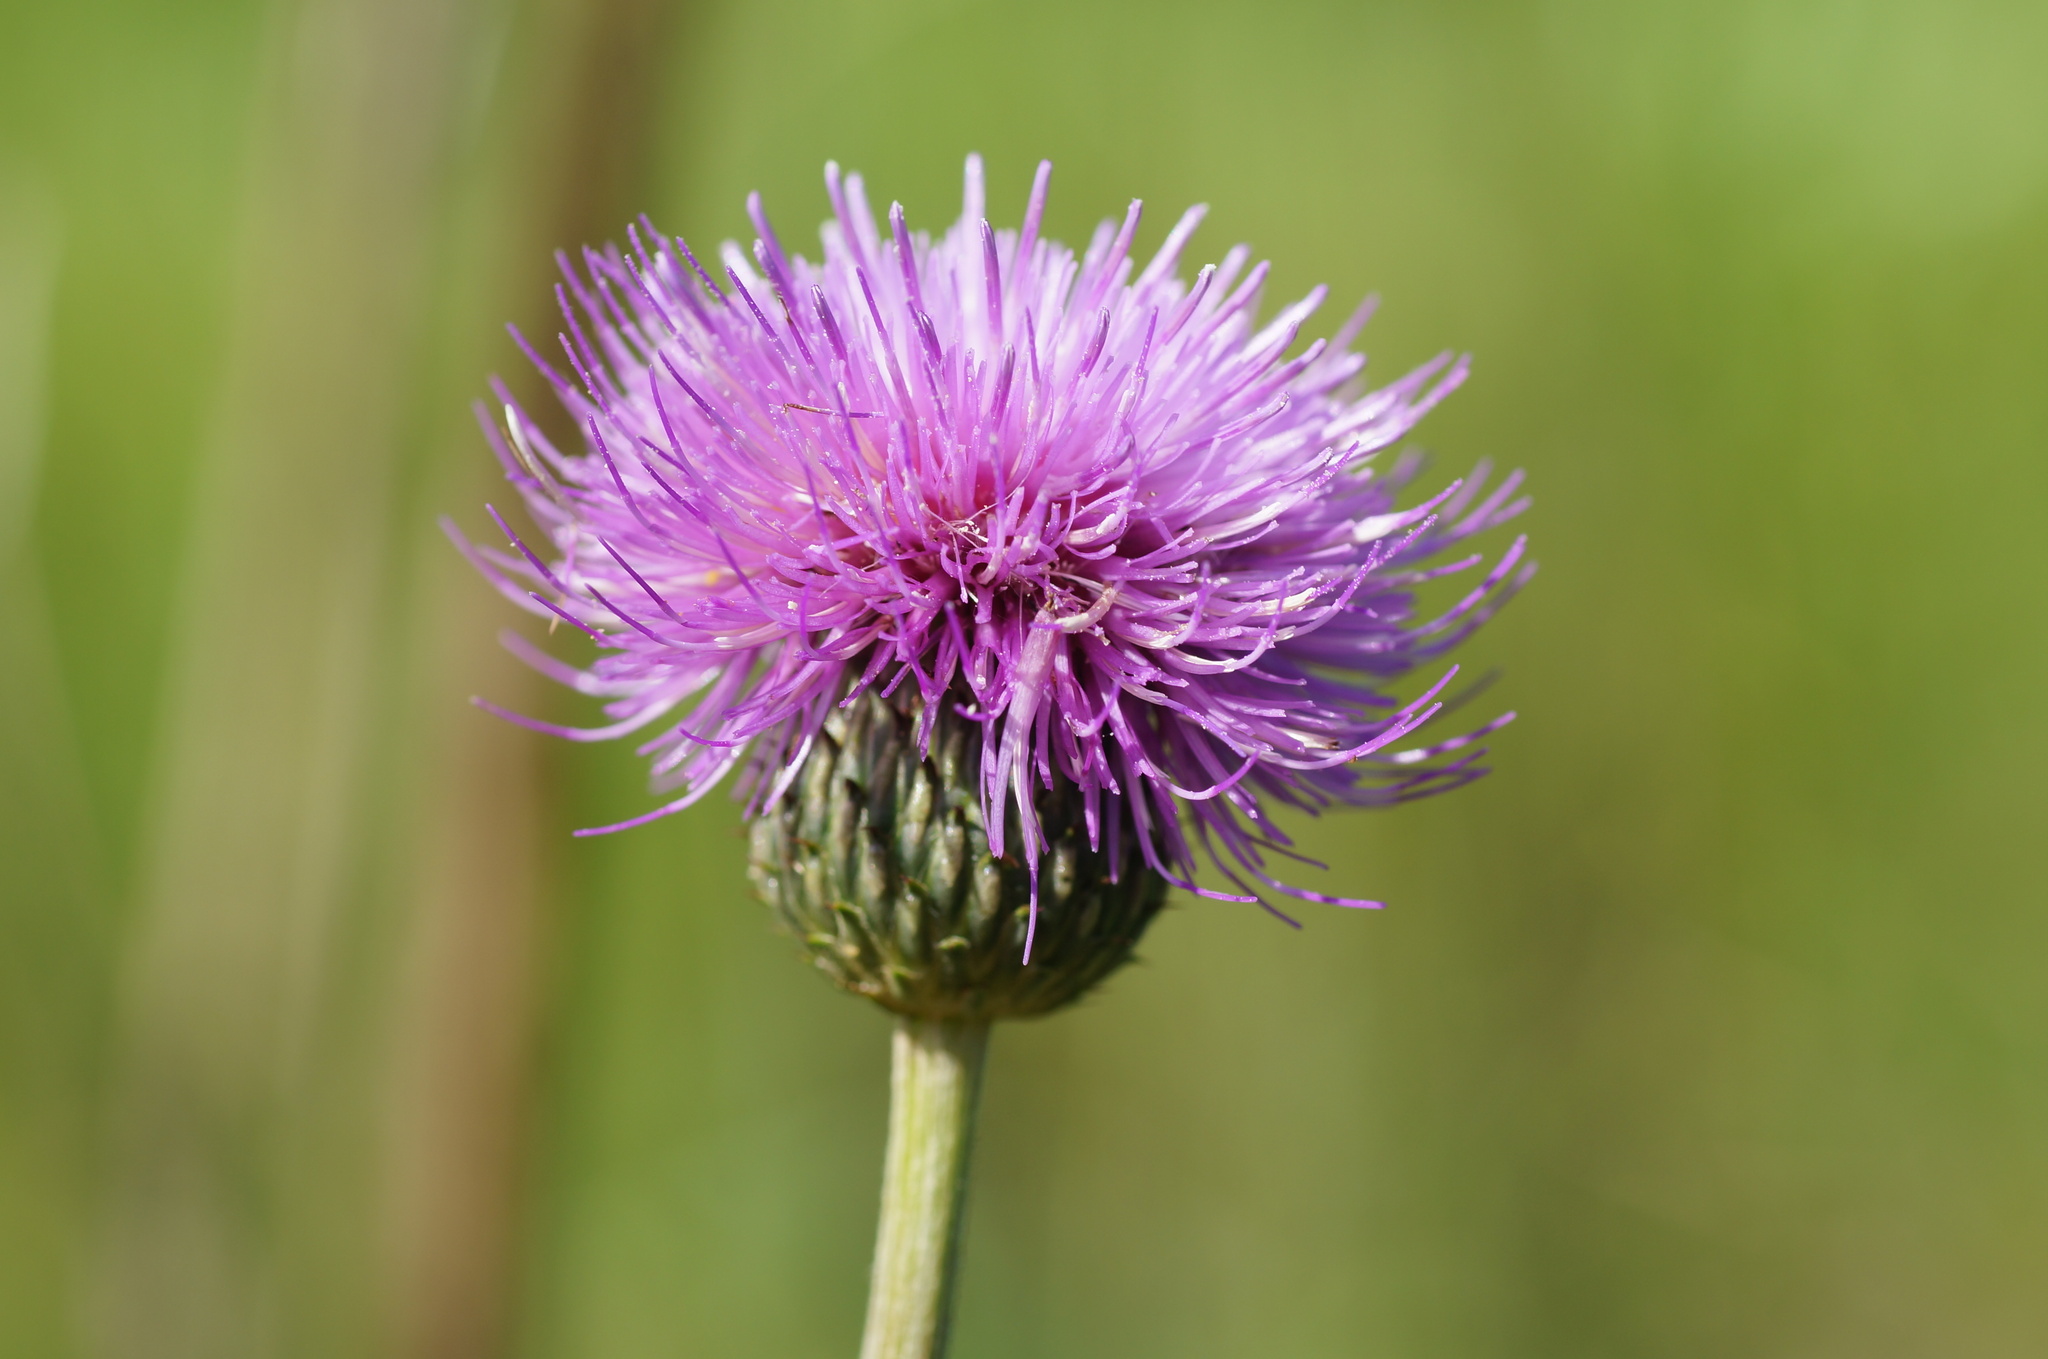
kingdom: Plantae
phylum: Tracheophyta
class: Magnoliopsida
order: Asterales
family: Asteraceae
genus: Cirsium
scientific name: Cirsium canum
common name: Queen anne's thistle
